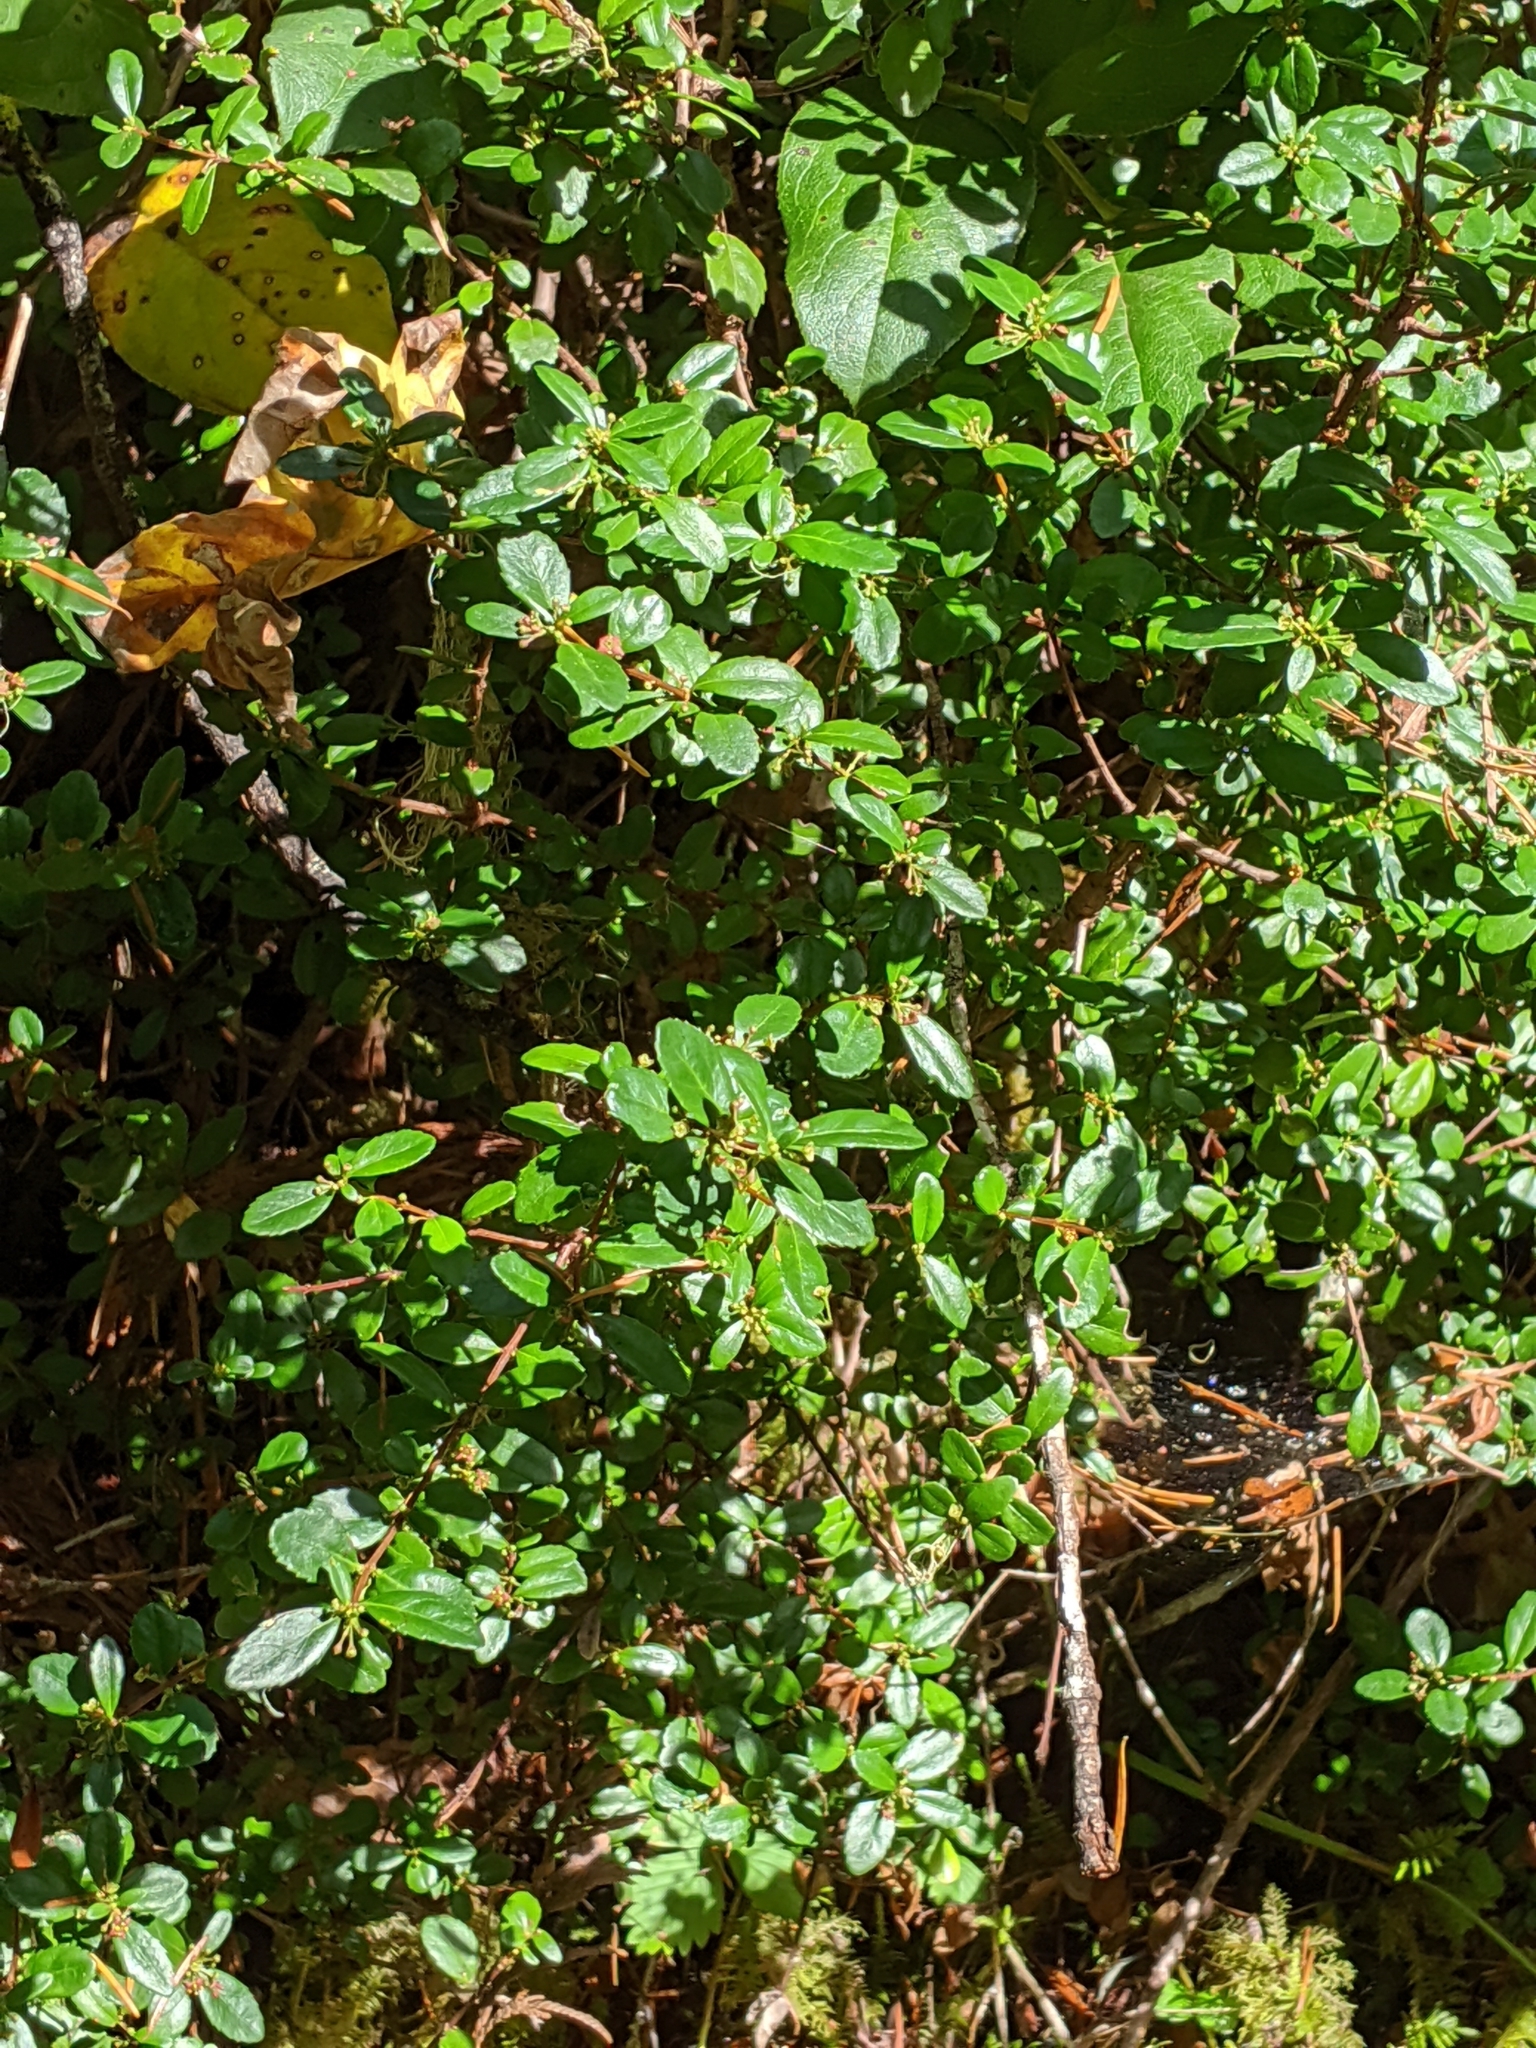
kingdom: Plantae
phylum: Tracheophyta
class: Magnoliopsida
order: Celastrales
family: Celastraceae
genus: Paxistima
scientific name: Paxistima myrsinites
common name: Mountain-lover
